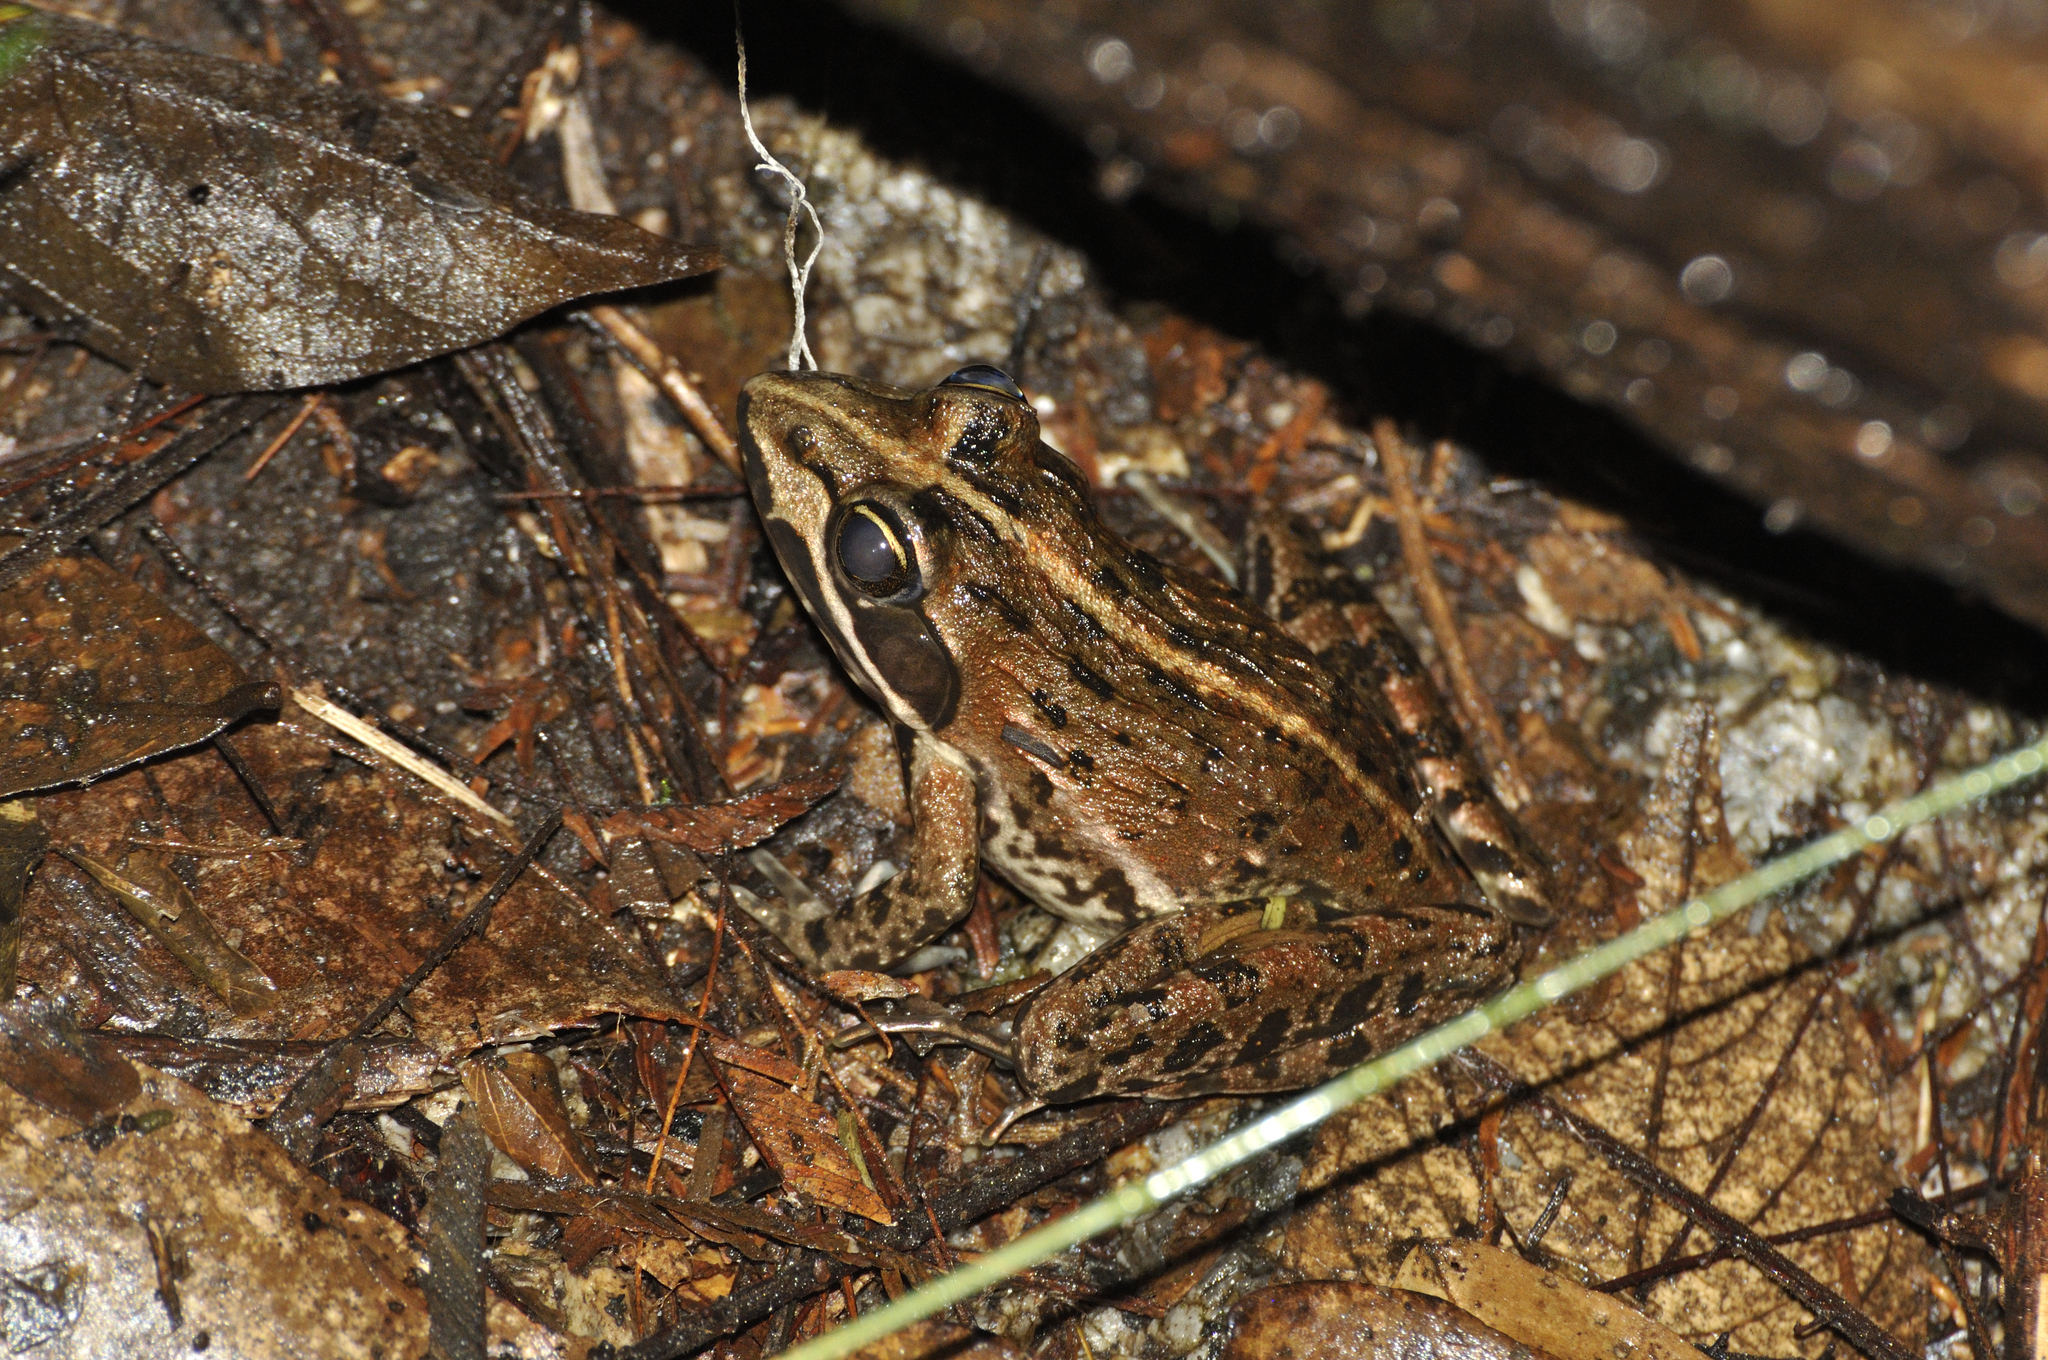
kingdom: Animalia
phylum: Chordata
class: Amphibia
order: Anura
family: Pyxicephalidae
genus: Amietia
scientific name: Amietia delalandii
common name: Delalande's river frog
